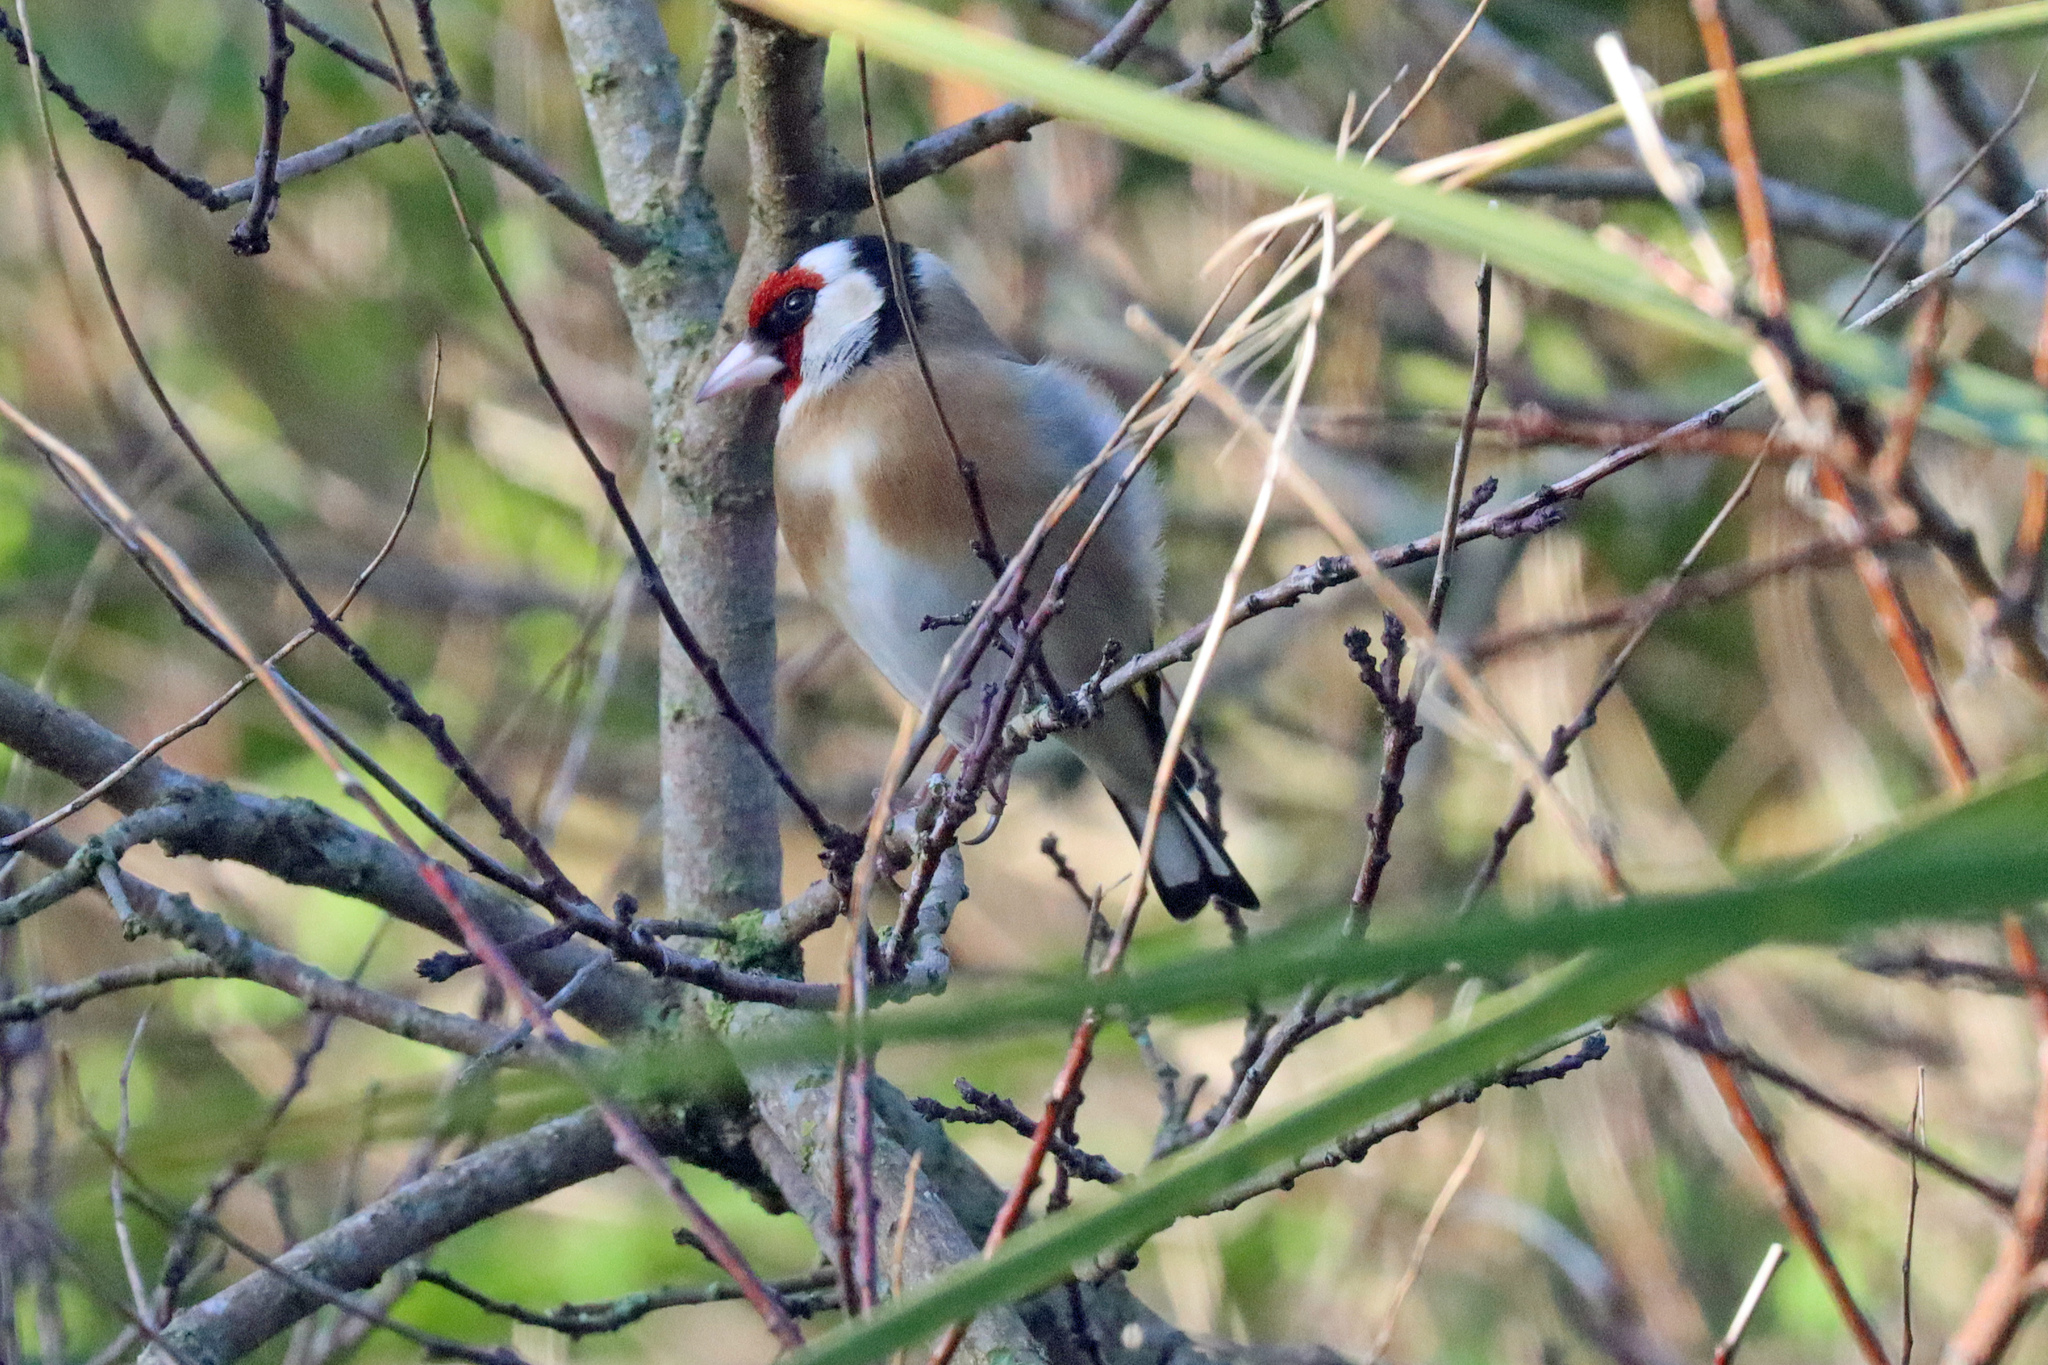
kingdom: Animalia
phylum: Chordata
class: Aves
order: Passeriformes
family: Fringillidae
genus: Carduelis
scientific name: Carduelis carduelis
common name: European goldfinch
